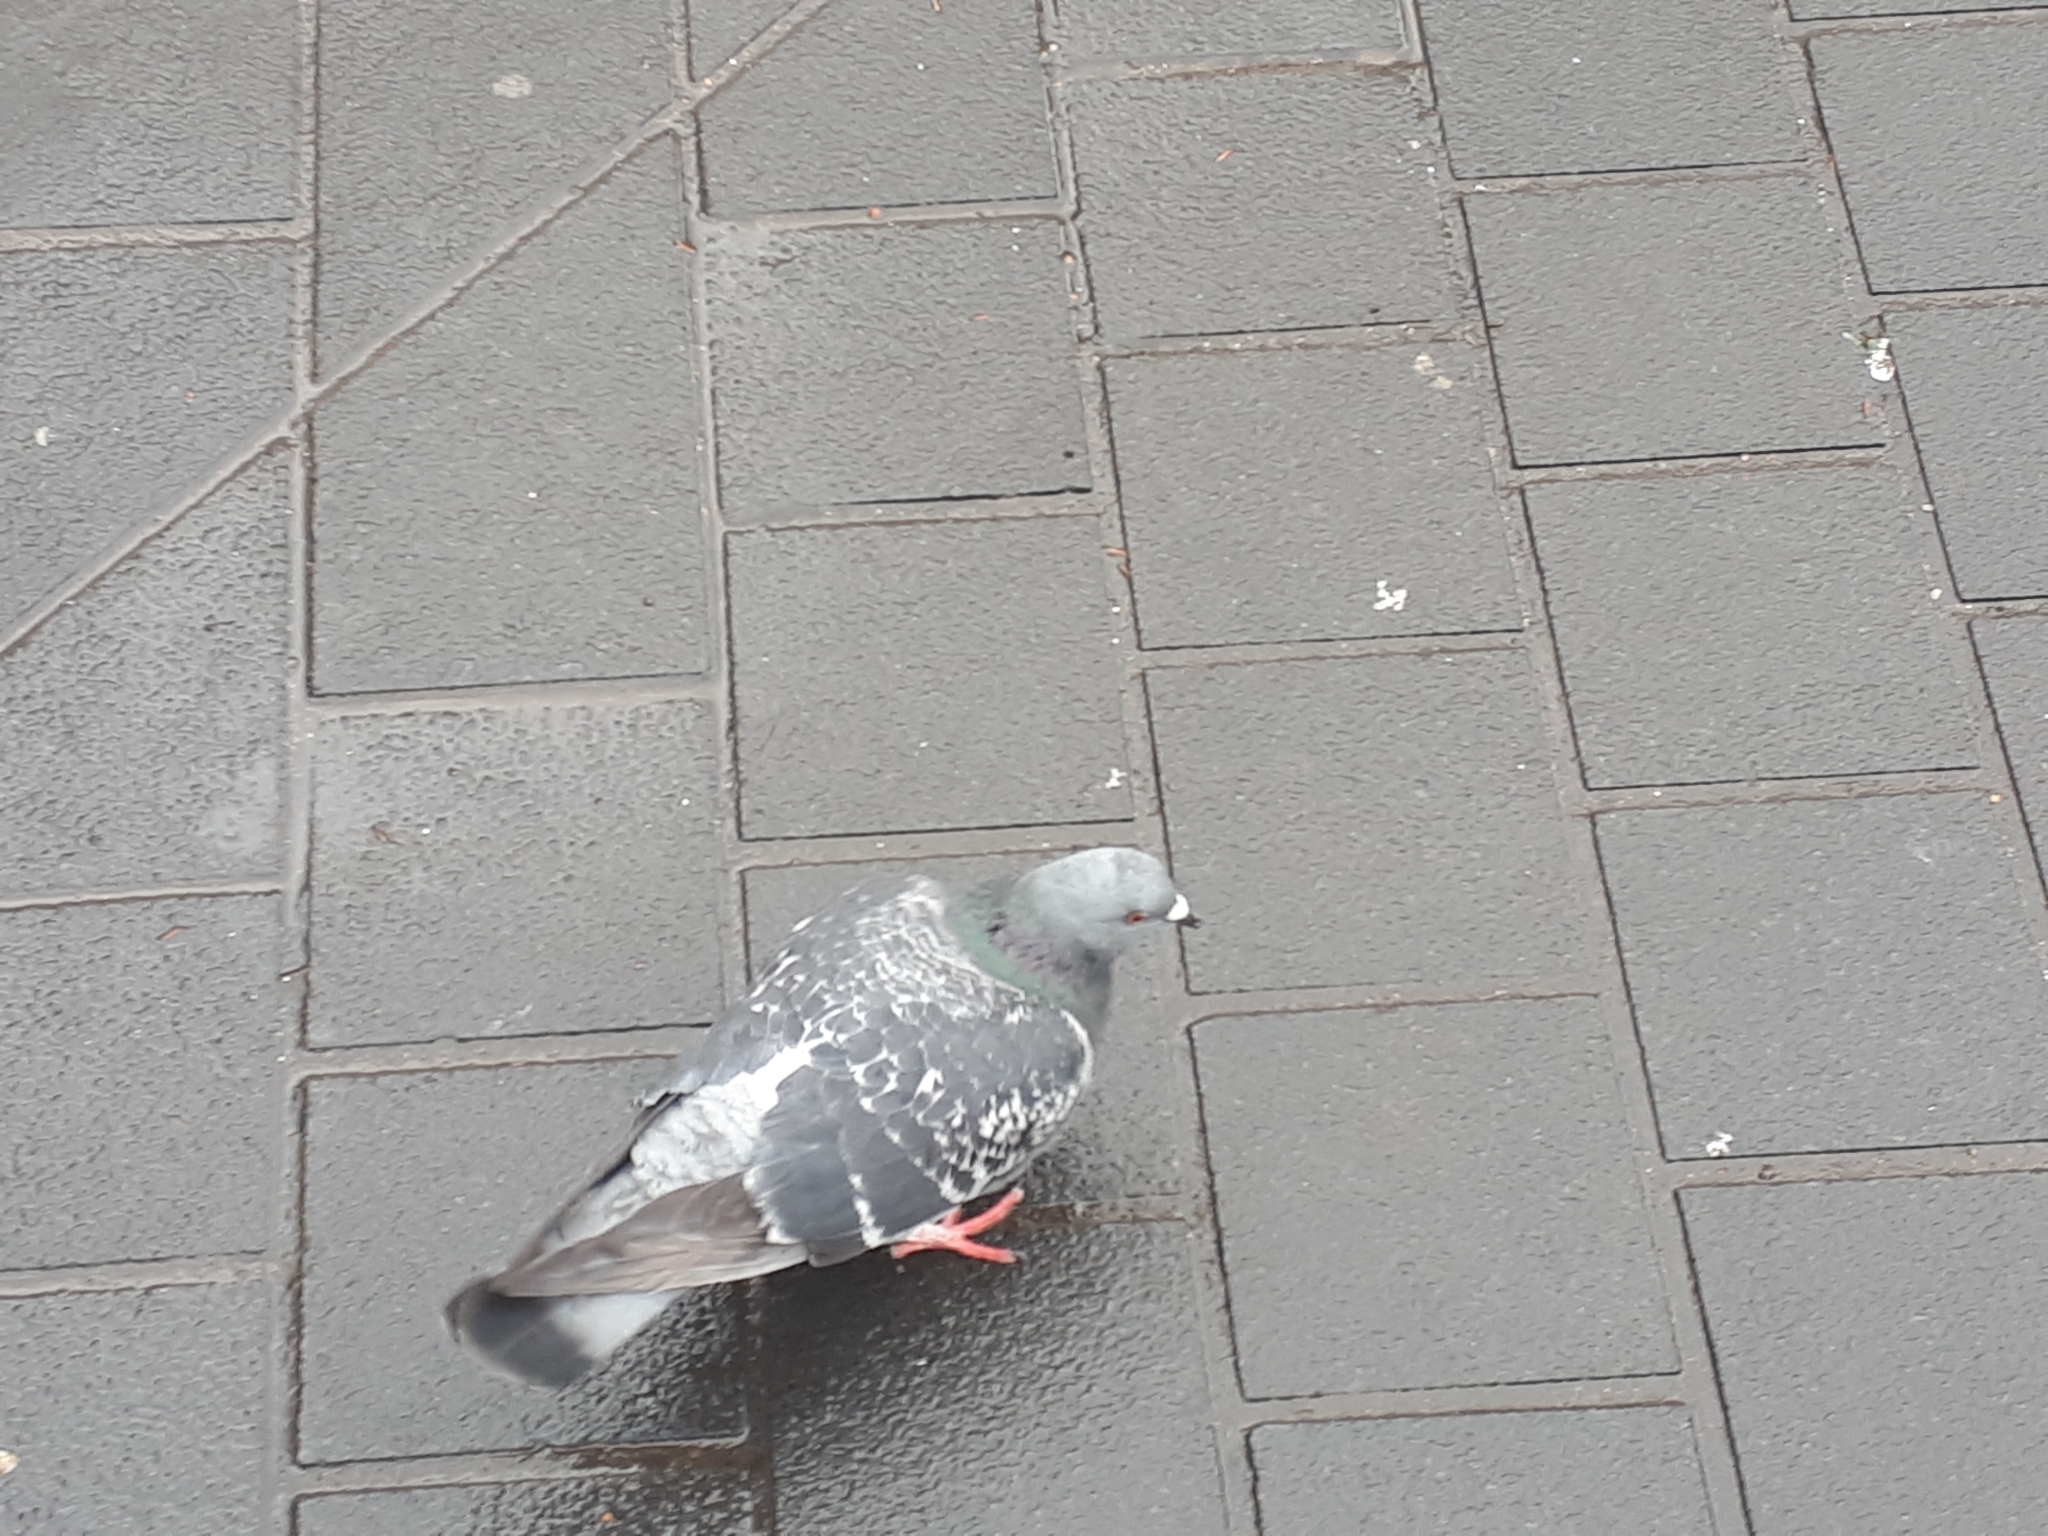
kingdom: Animalia
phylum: Chordata
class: Aves
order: Columbiformes
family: Columbidae
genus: Columba
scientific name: Columba livia
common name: Rock pigeon
